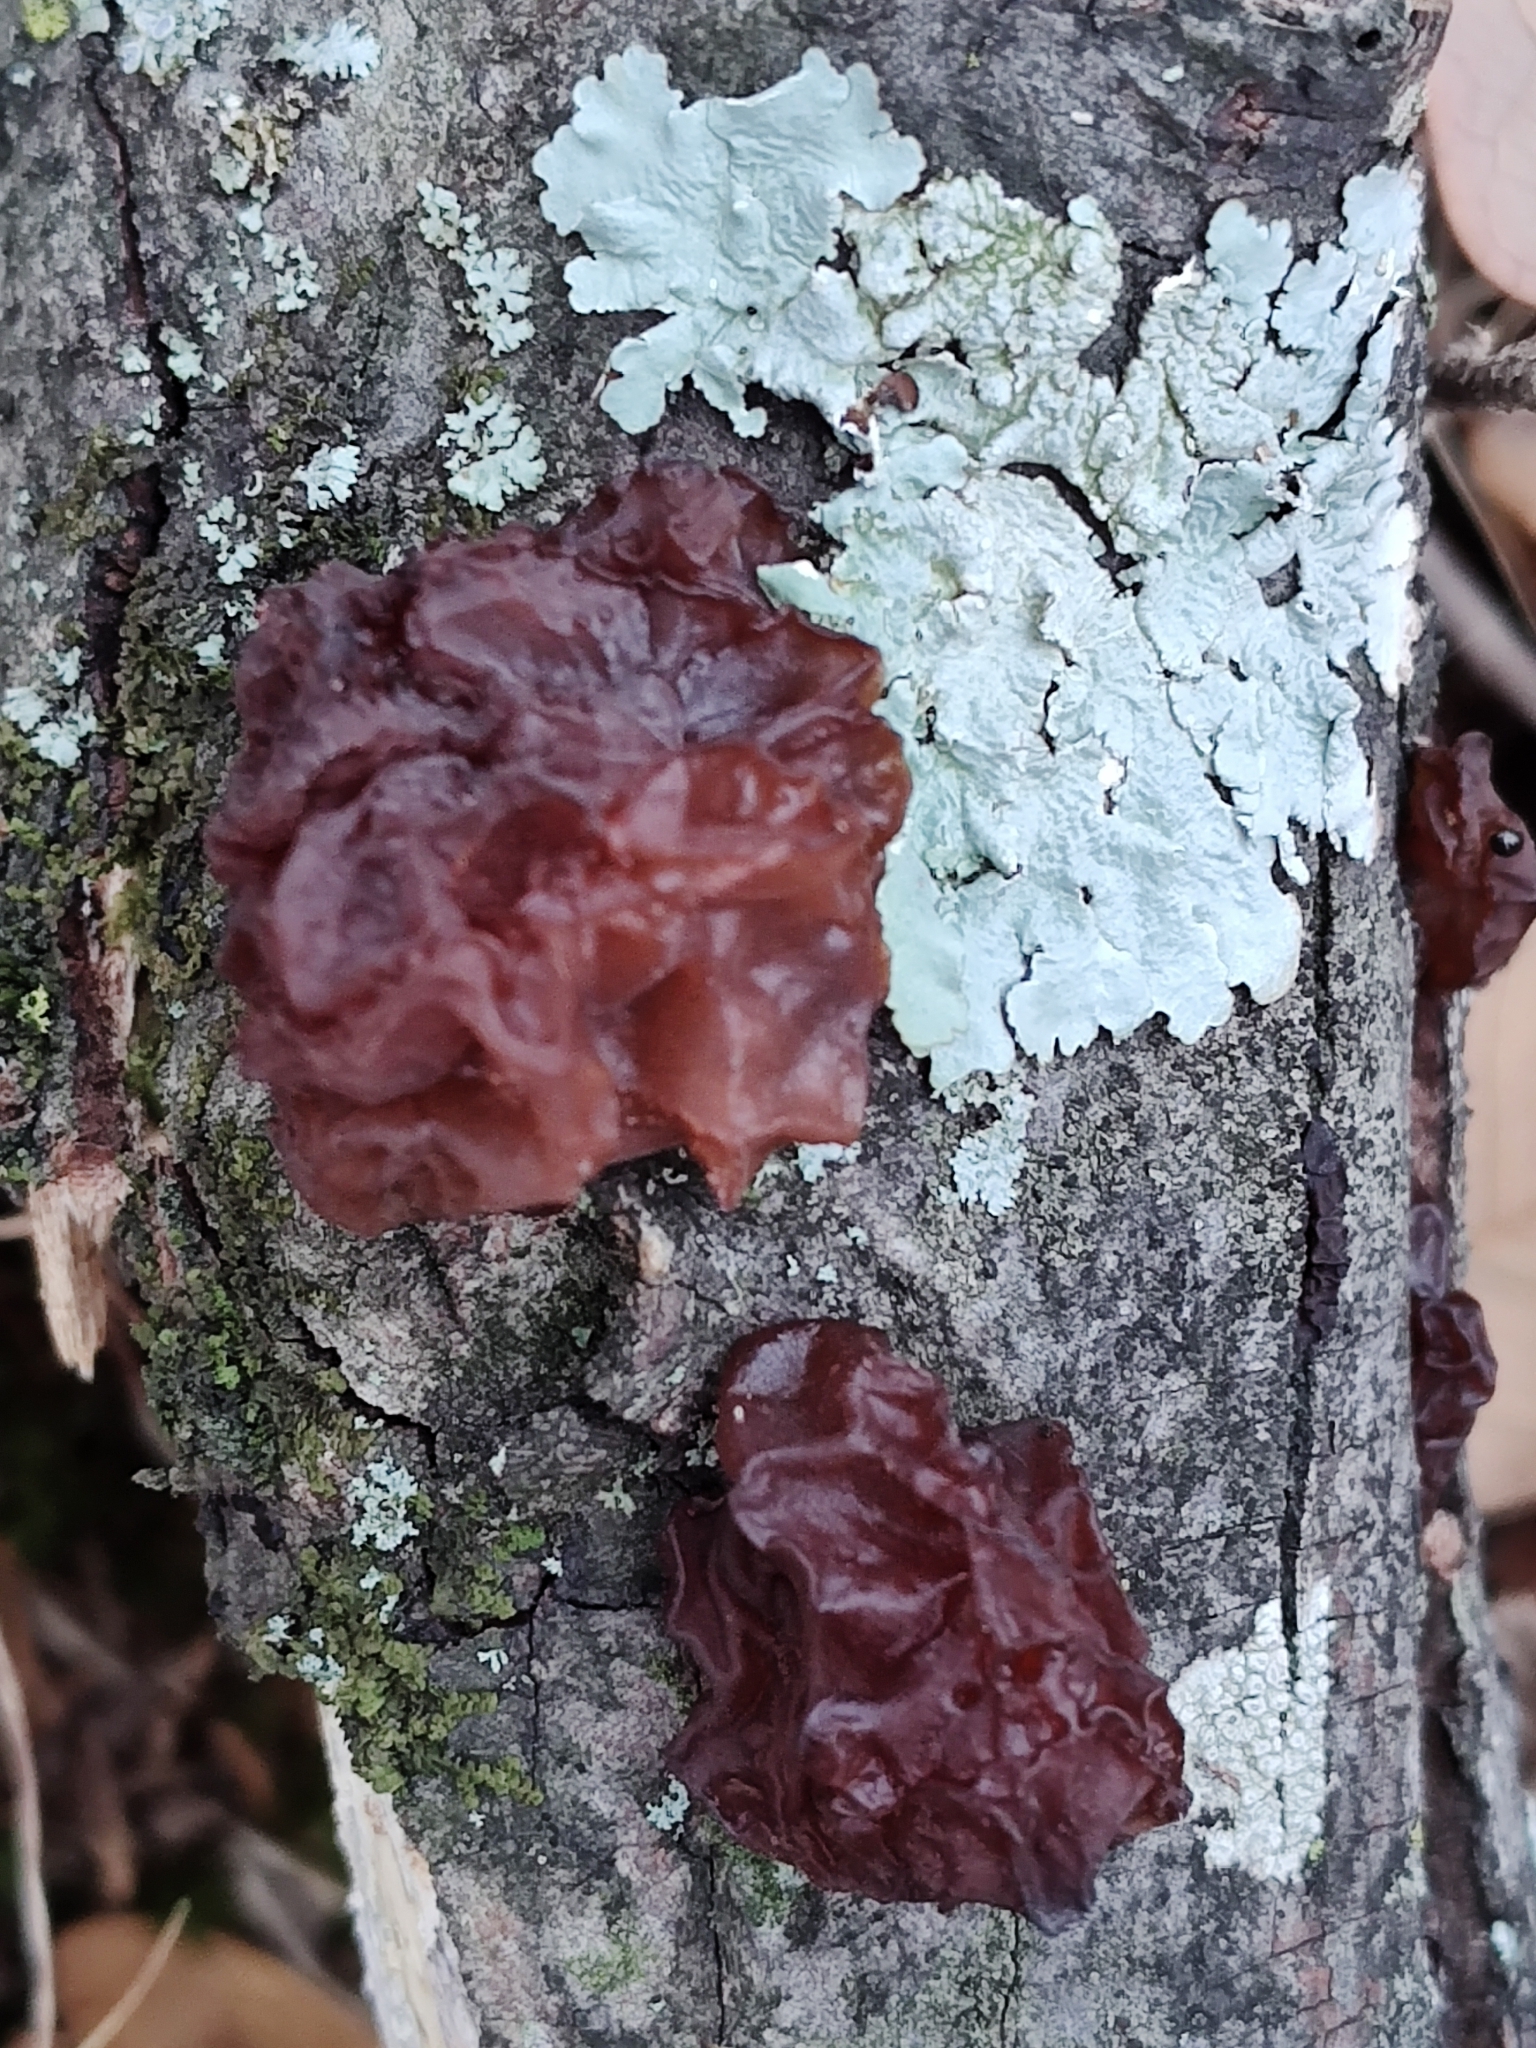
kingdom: Fungi
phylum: Basidiomycota
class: Agaricomycetes
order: Auriculariales
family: Auriculariaceae
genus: Exidia
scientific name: Exidia
